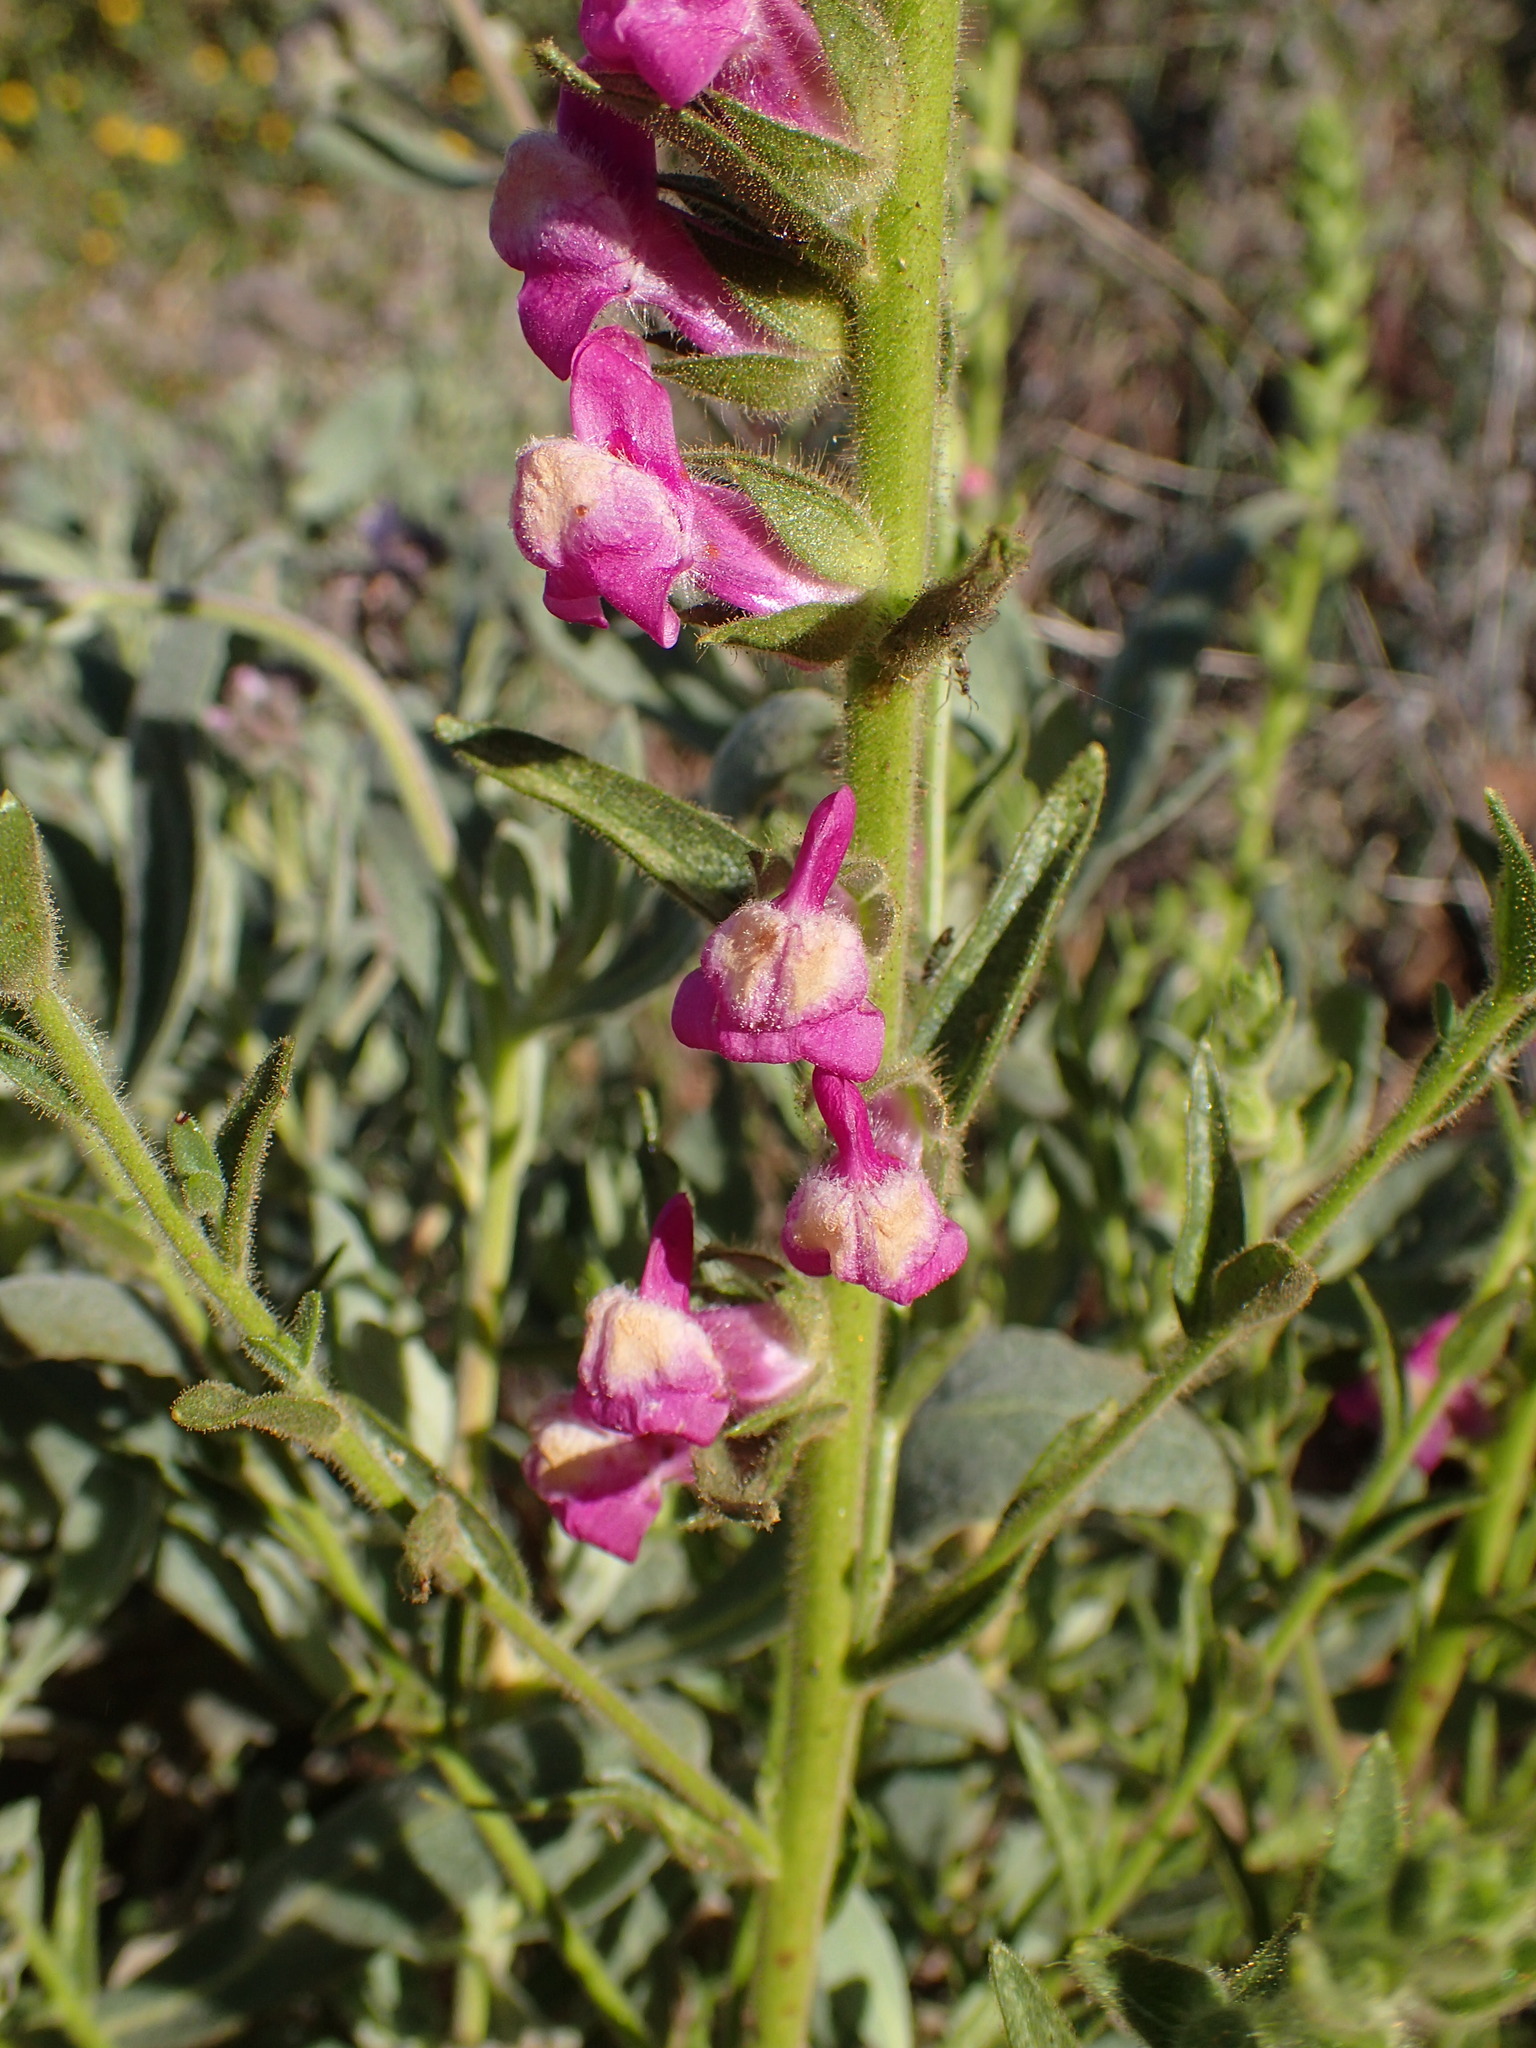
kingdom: Plantae
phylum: Tracheophyta
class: Magnoliopsida
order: Lamiales
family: Plantaginaceae
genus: Sairocarpus
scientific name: Sairocarpus multiflorus
